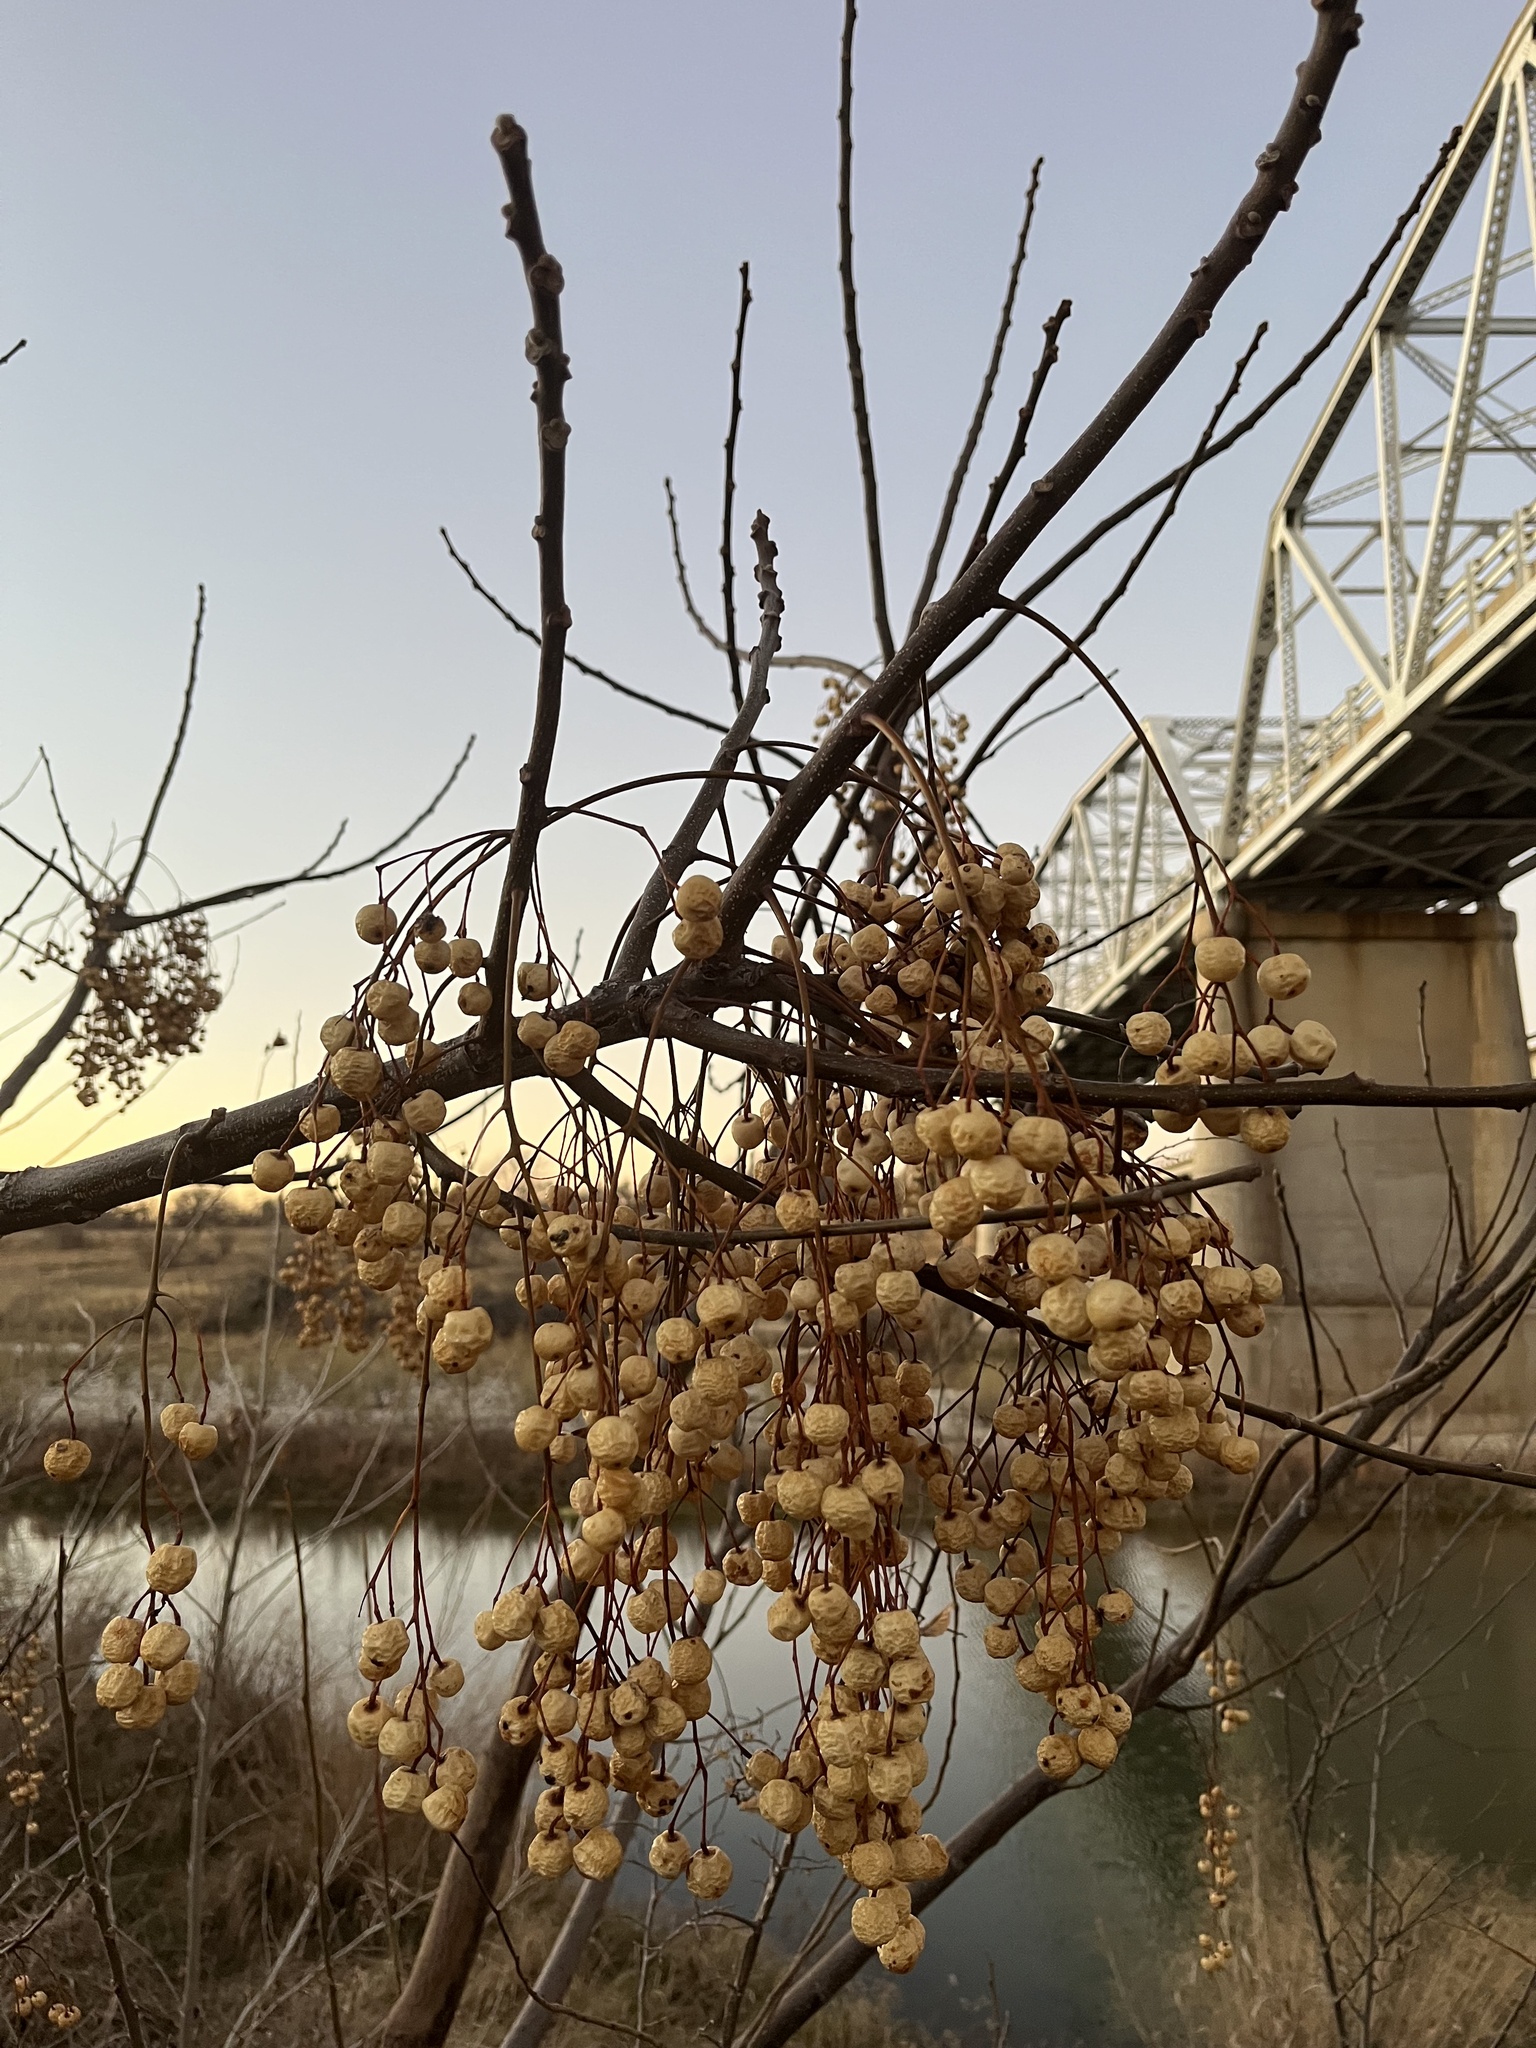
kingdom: Plantae
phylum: Tracheophyta
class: Magnoliopsida
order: Sapindales
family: Meliaceae
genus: Melia
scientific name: Melia azedarach
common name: Chinaberrytree
